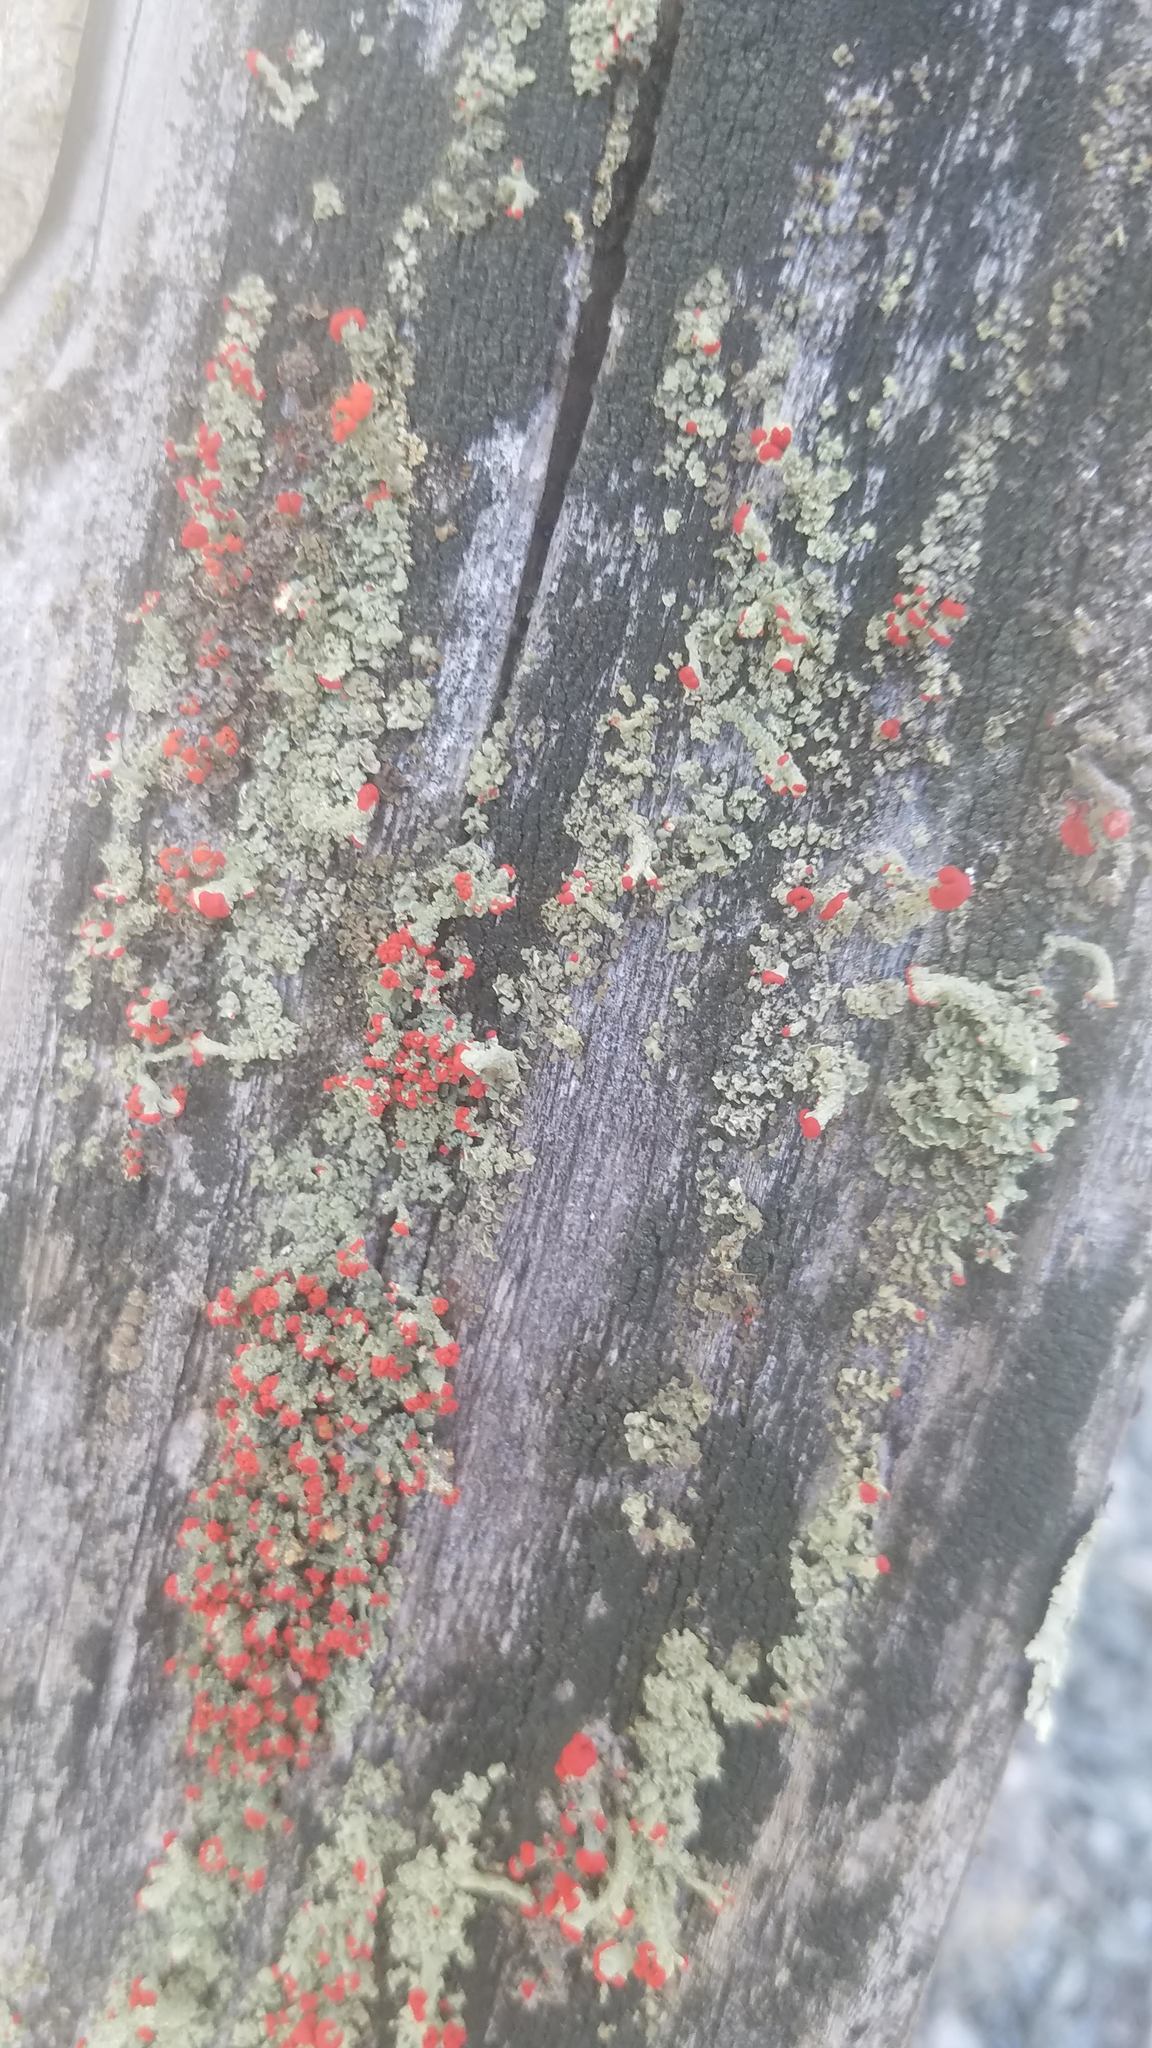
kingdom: Fungi
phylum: Ascomycota
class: Lecanoromycetes
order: Lecanorales
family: Cladoniaceae
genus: Cladonia
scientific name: Cladonia cristatella
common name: British soldier lichen
